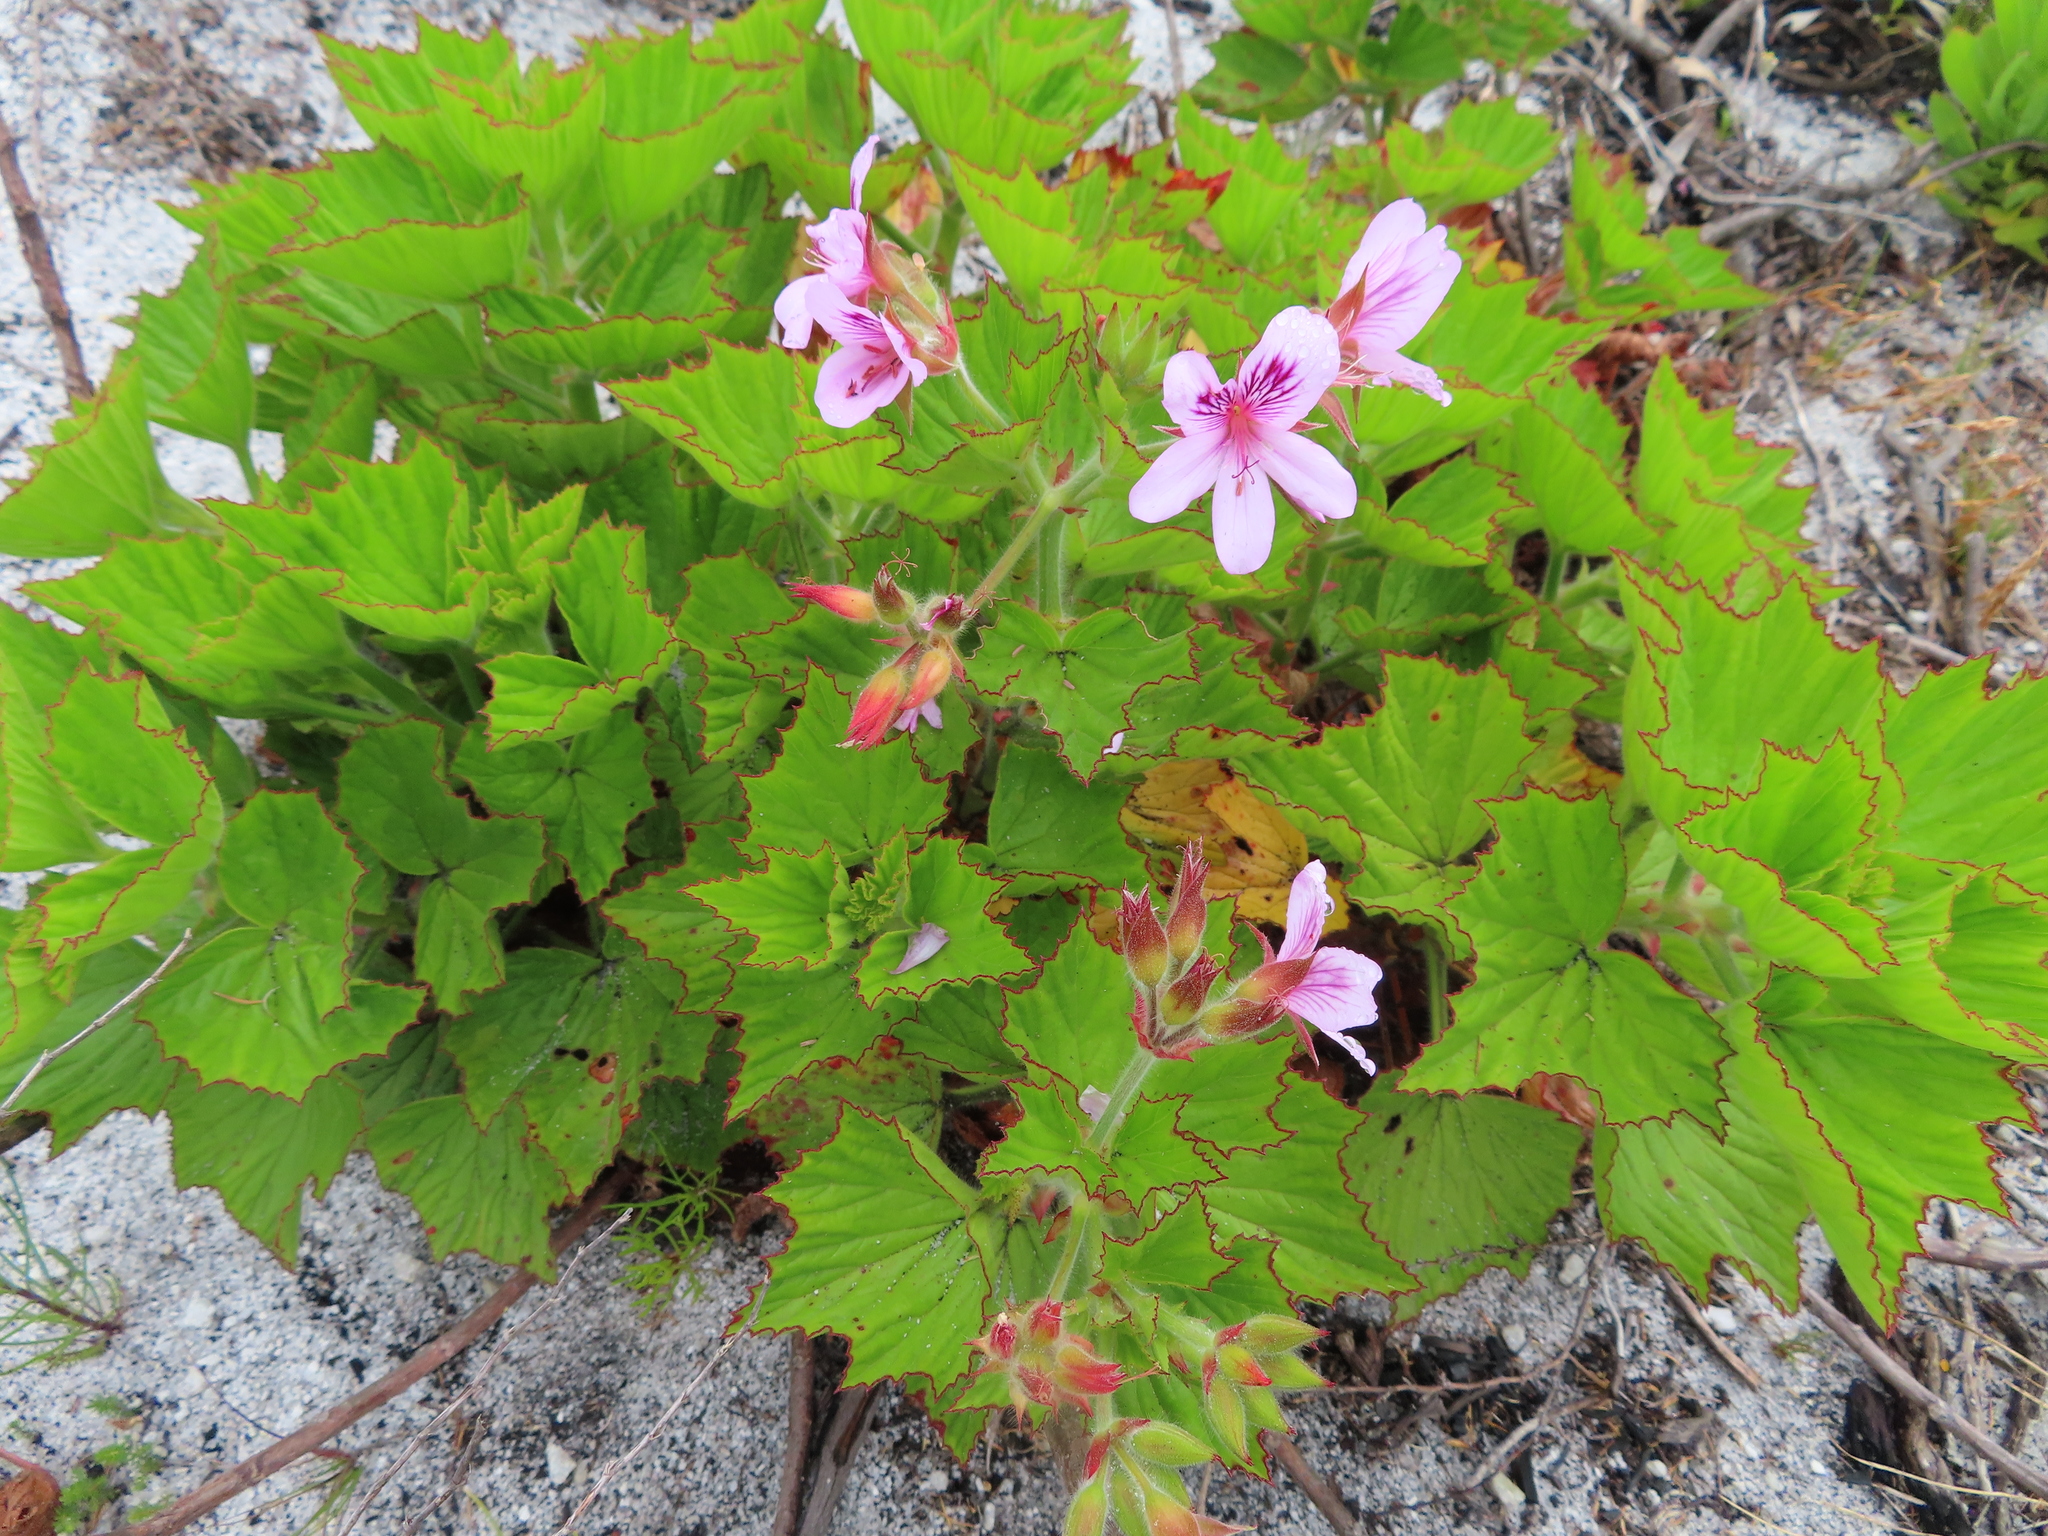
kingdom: Plantae
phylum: Tracheophyta
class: Magnoliopsida
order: Geraniales
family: Geraniaceae
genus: Pelargonium
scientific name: Pelargonium cucullatum
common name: Tree pelargonium
